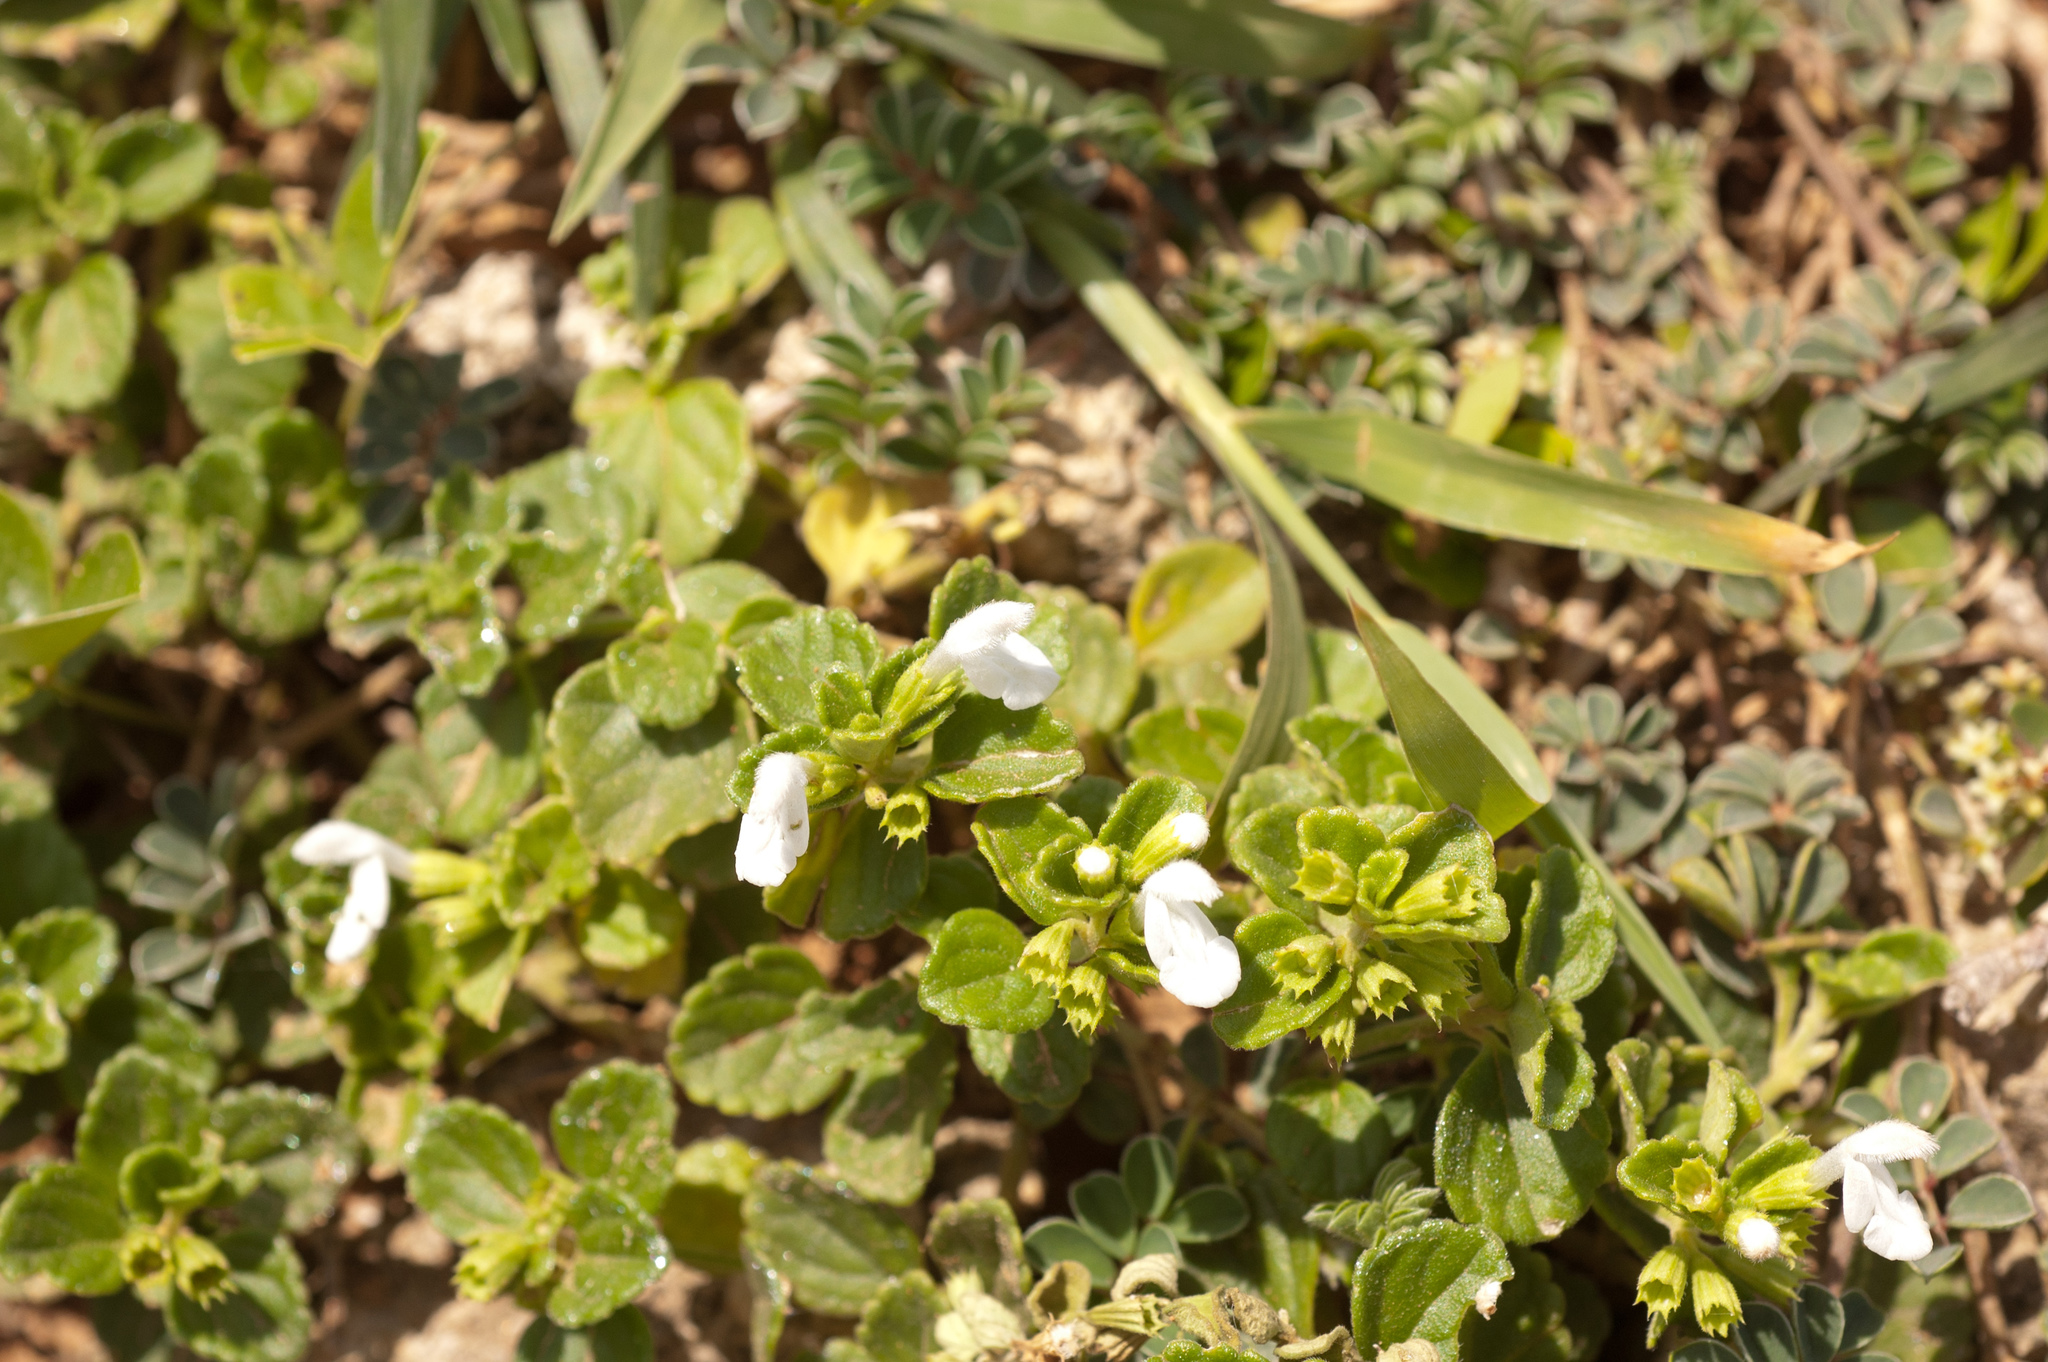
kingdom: Plantae
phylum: Tracheophyta
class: Magnoliopsida
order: Lamiales
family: Lamiaceae
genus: Leucas
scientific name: Leucas chinensis
